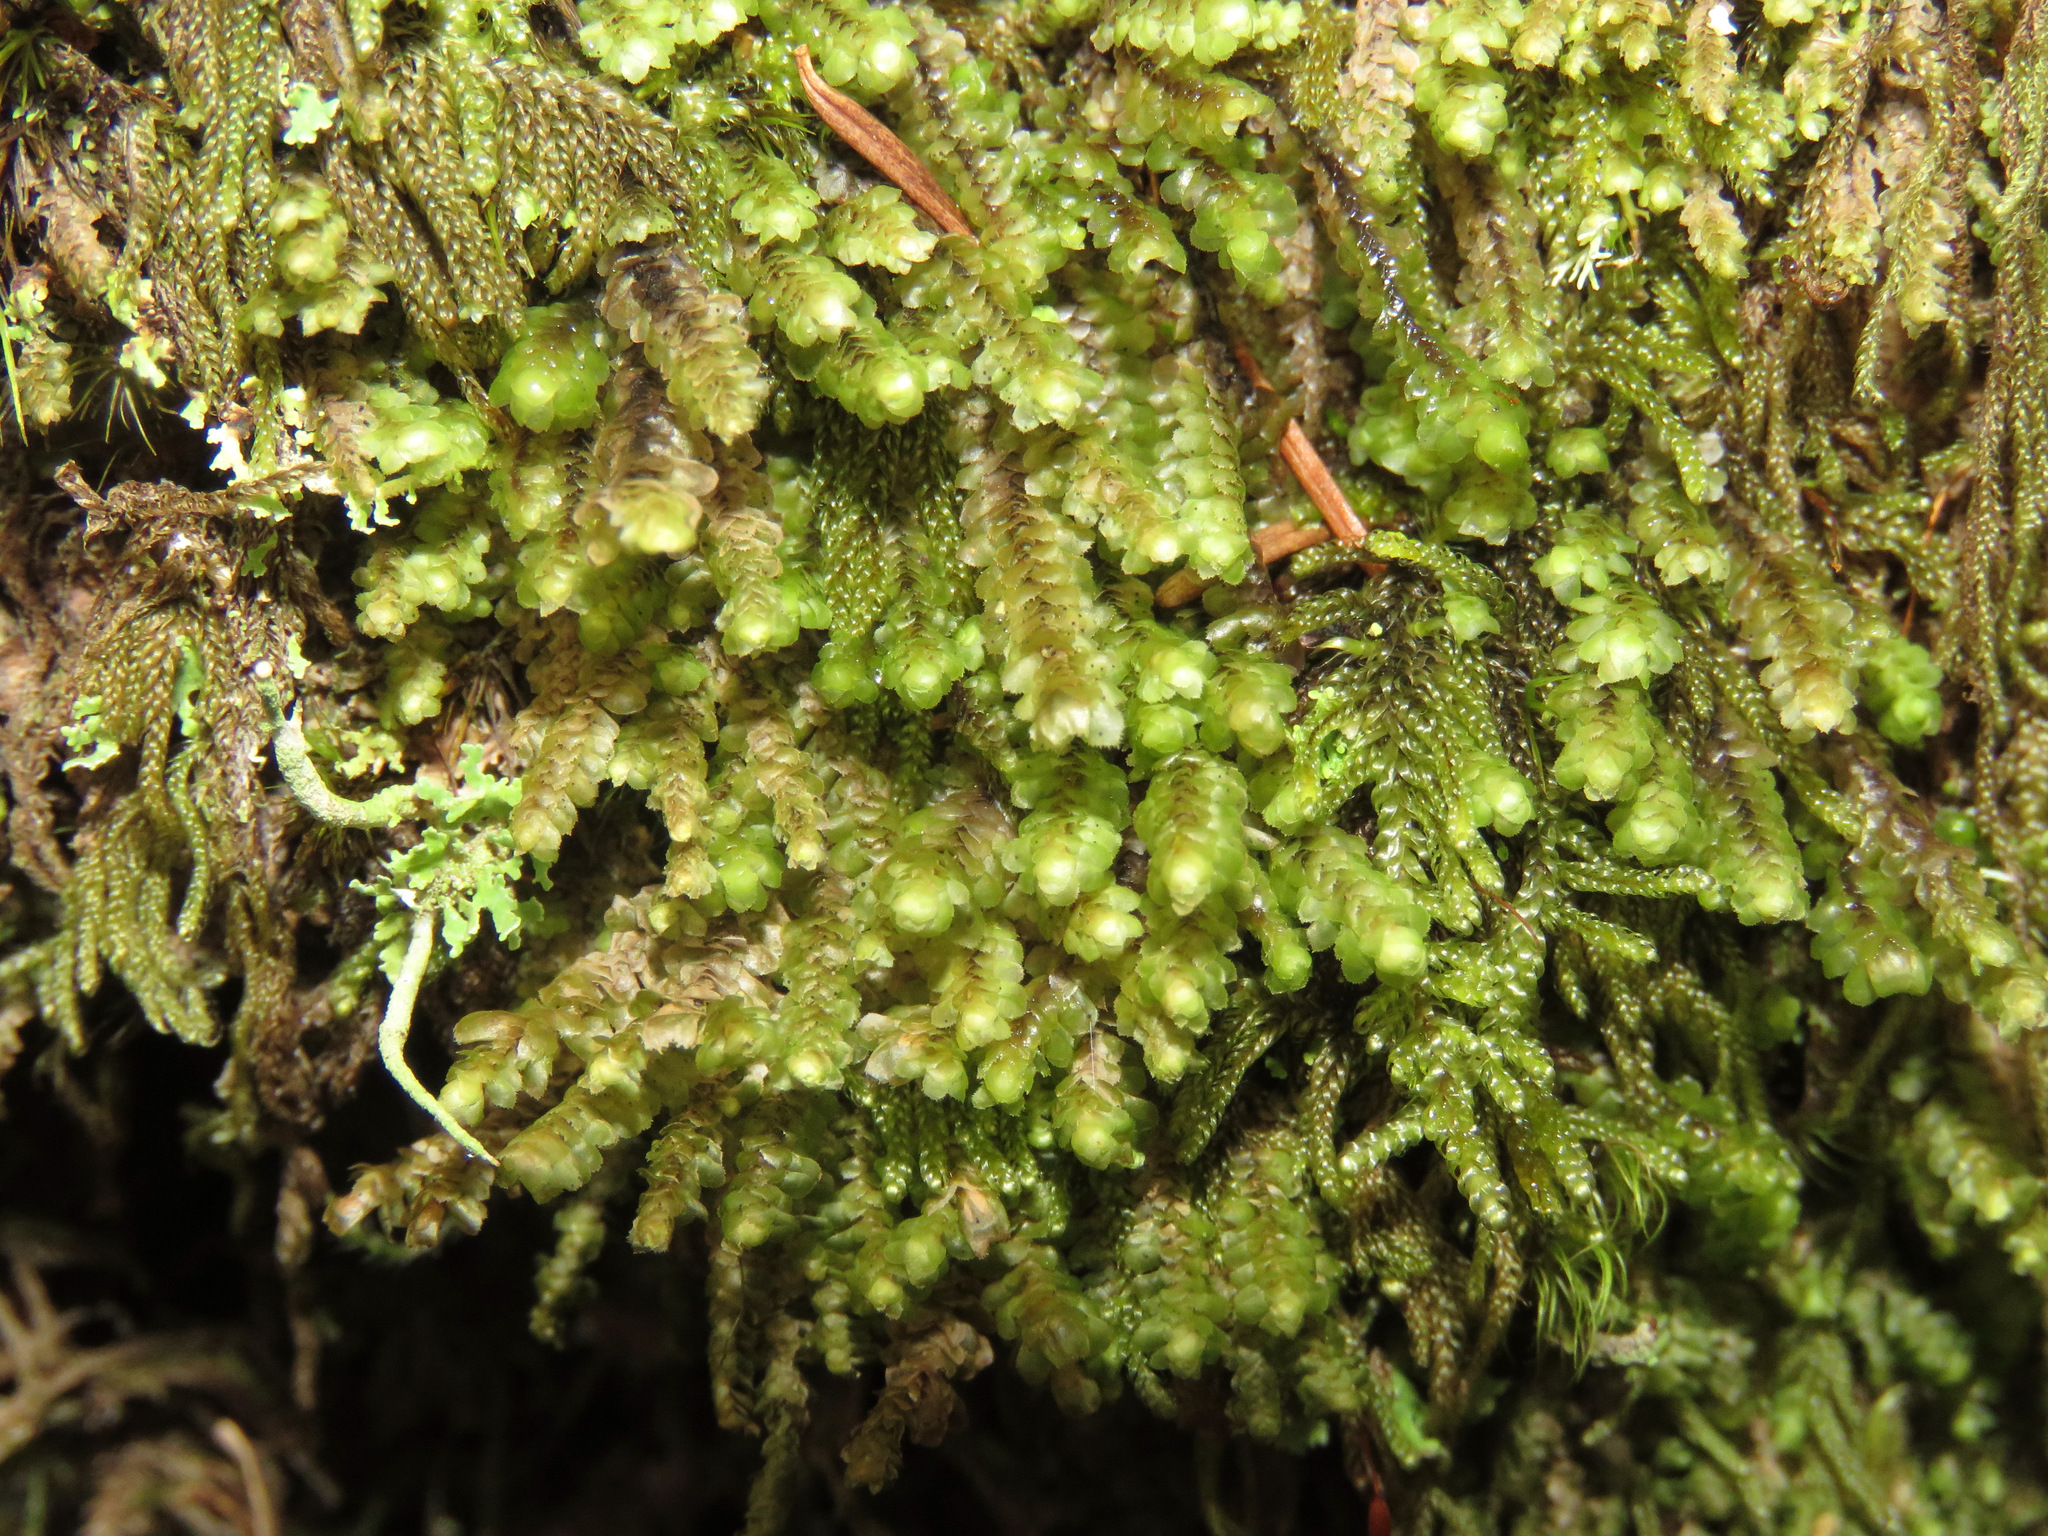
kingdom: Plantae
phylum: Marchantiophyta
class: Jungermanniopsida
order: Jungermanniales
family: Scapaniaceae
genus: Scapania
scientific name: Scapania bolanderi
